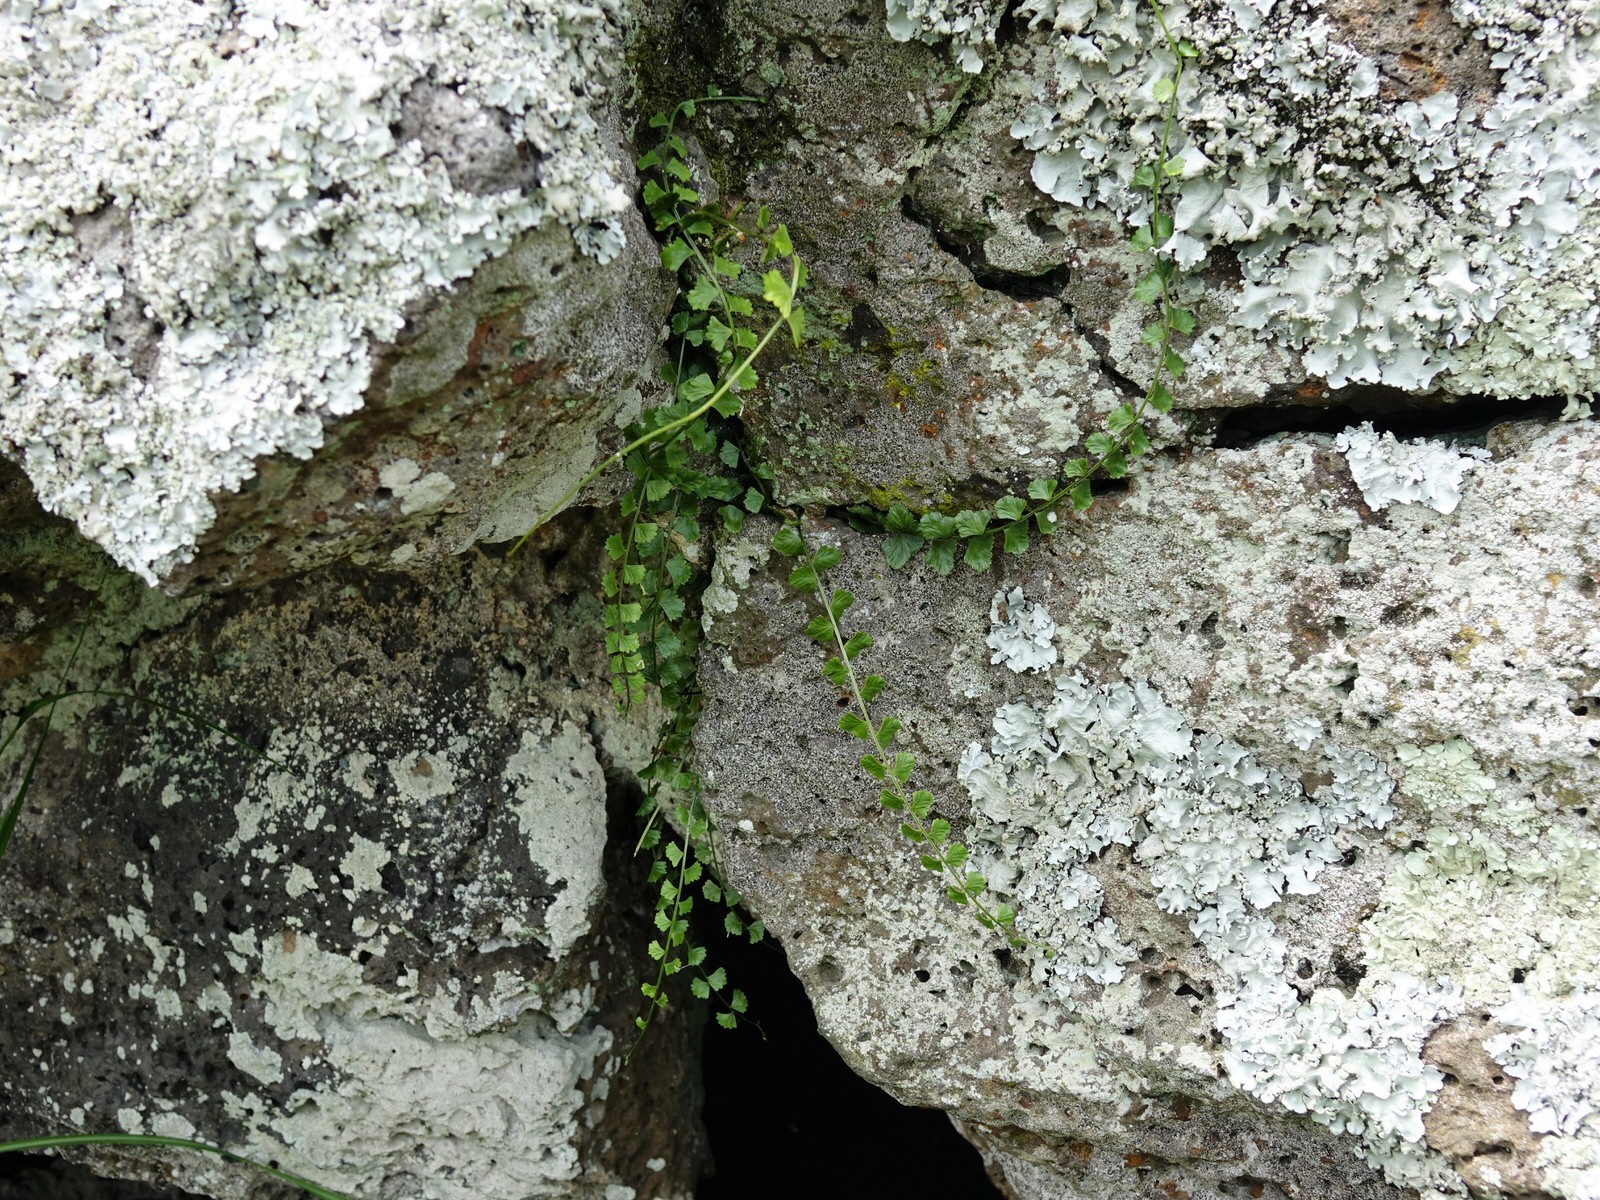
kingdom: Plantae
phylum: Tracheophyta
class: Polypodiopsida
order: Polypodiales
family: Aspleniaceae
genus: Asplenium
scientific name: Asplenium flabellifolium
